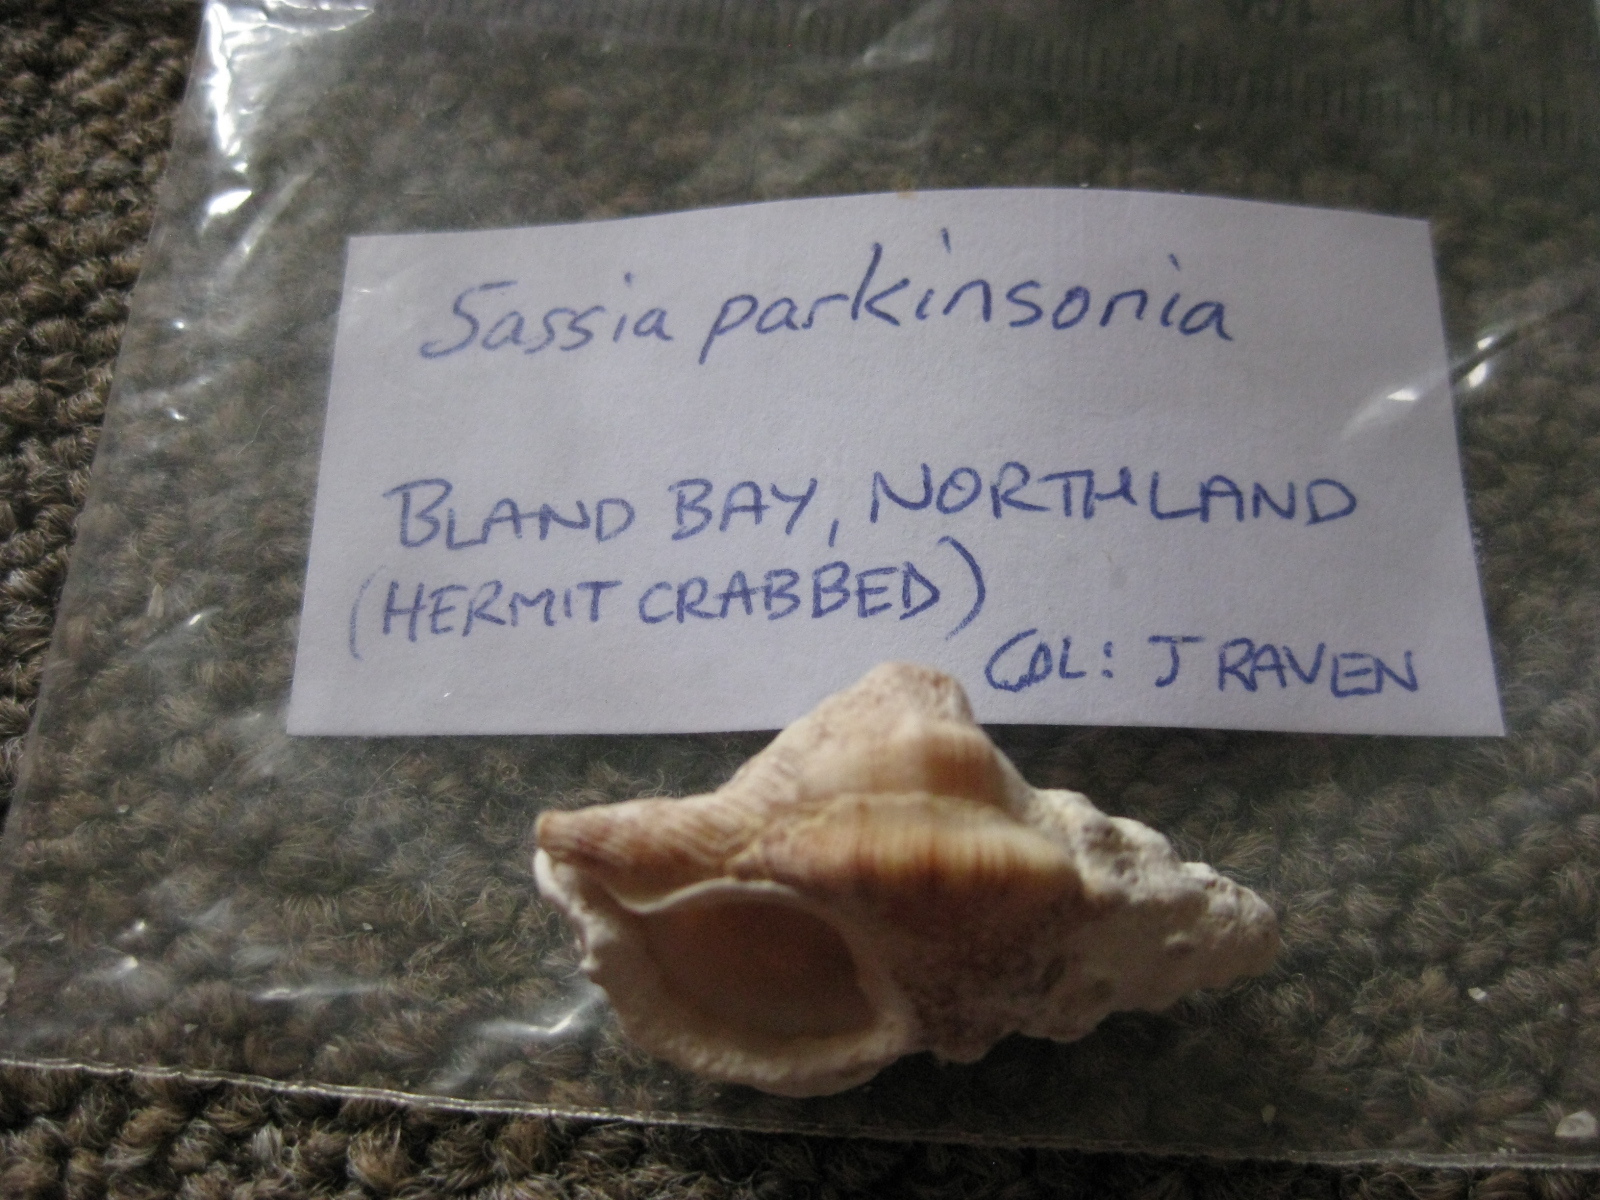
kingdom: Animalia
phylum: Mollusca
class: Gastropoda
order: Littorinimorpha
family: Cymatiidae
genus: Austrosassia
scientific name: Austrosassia parkinsonia
